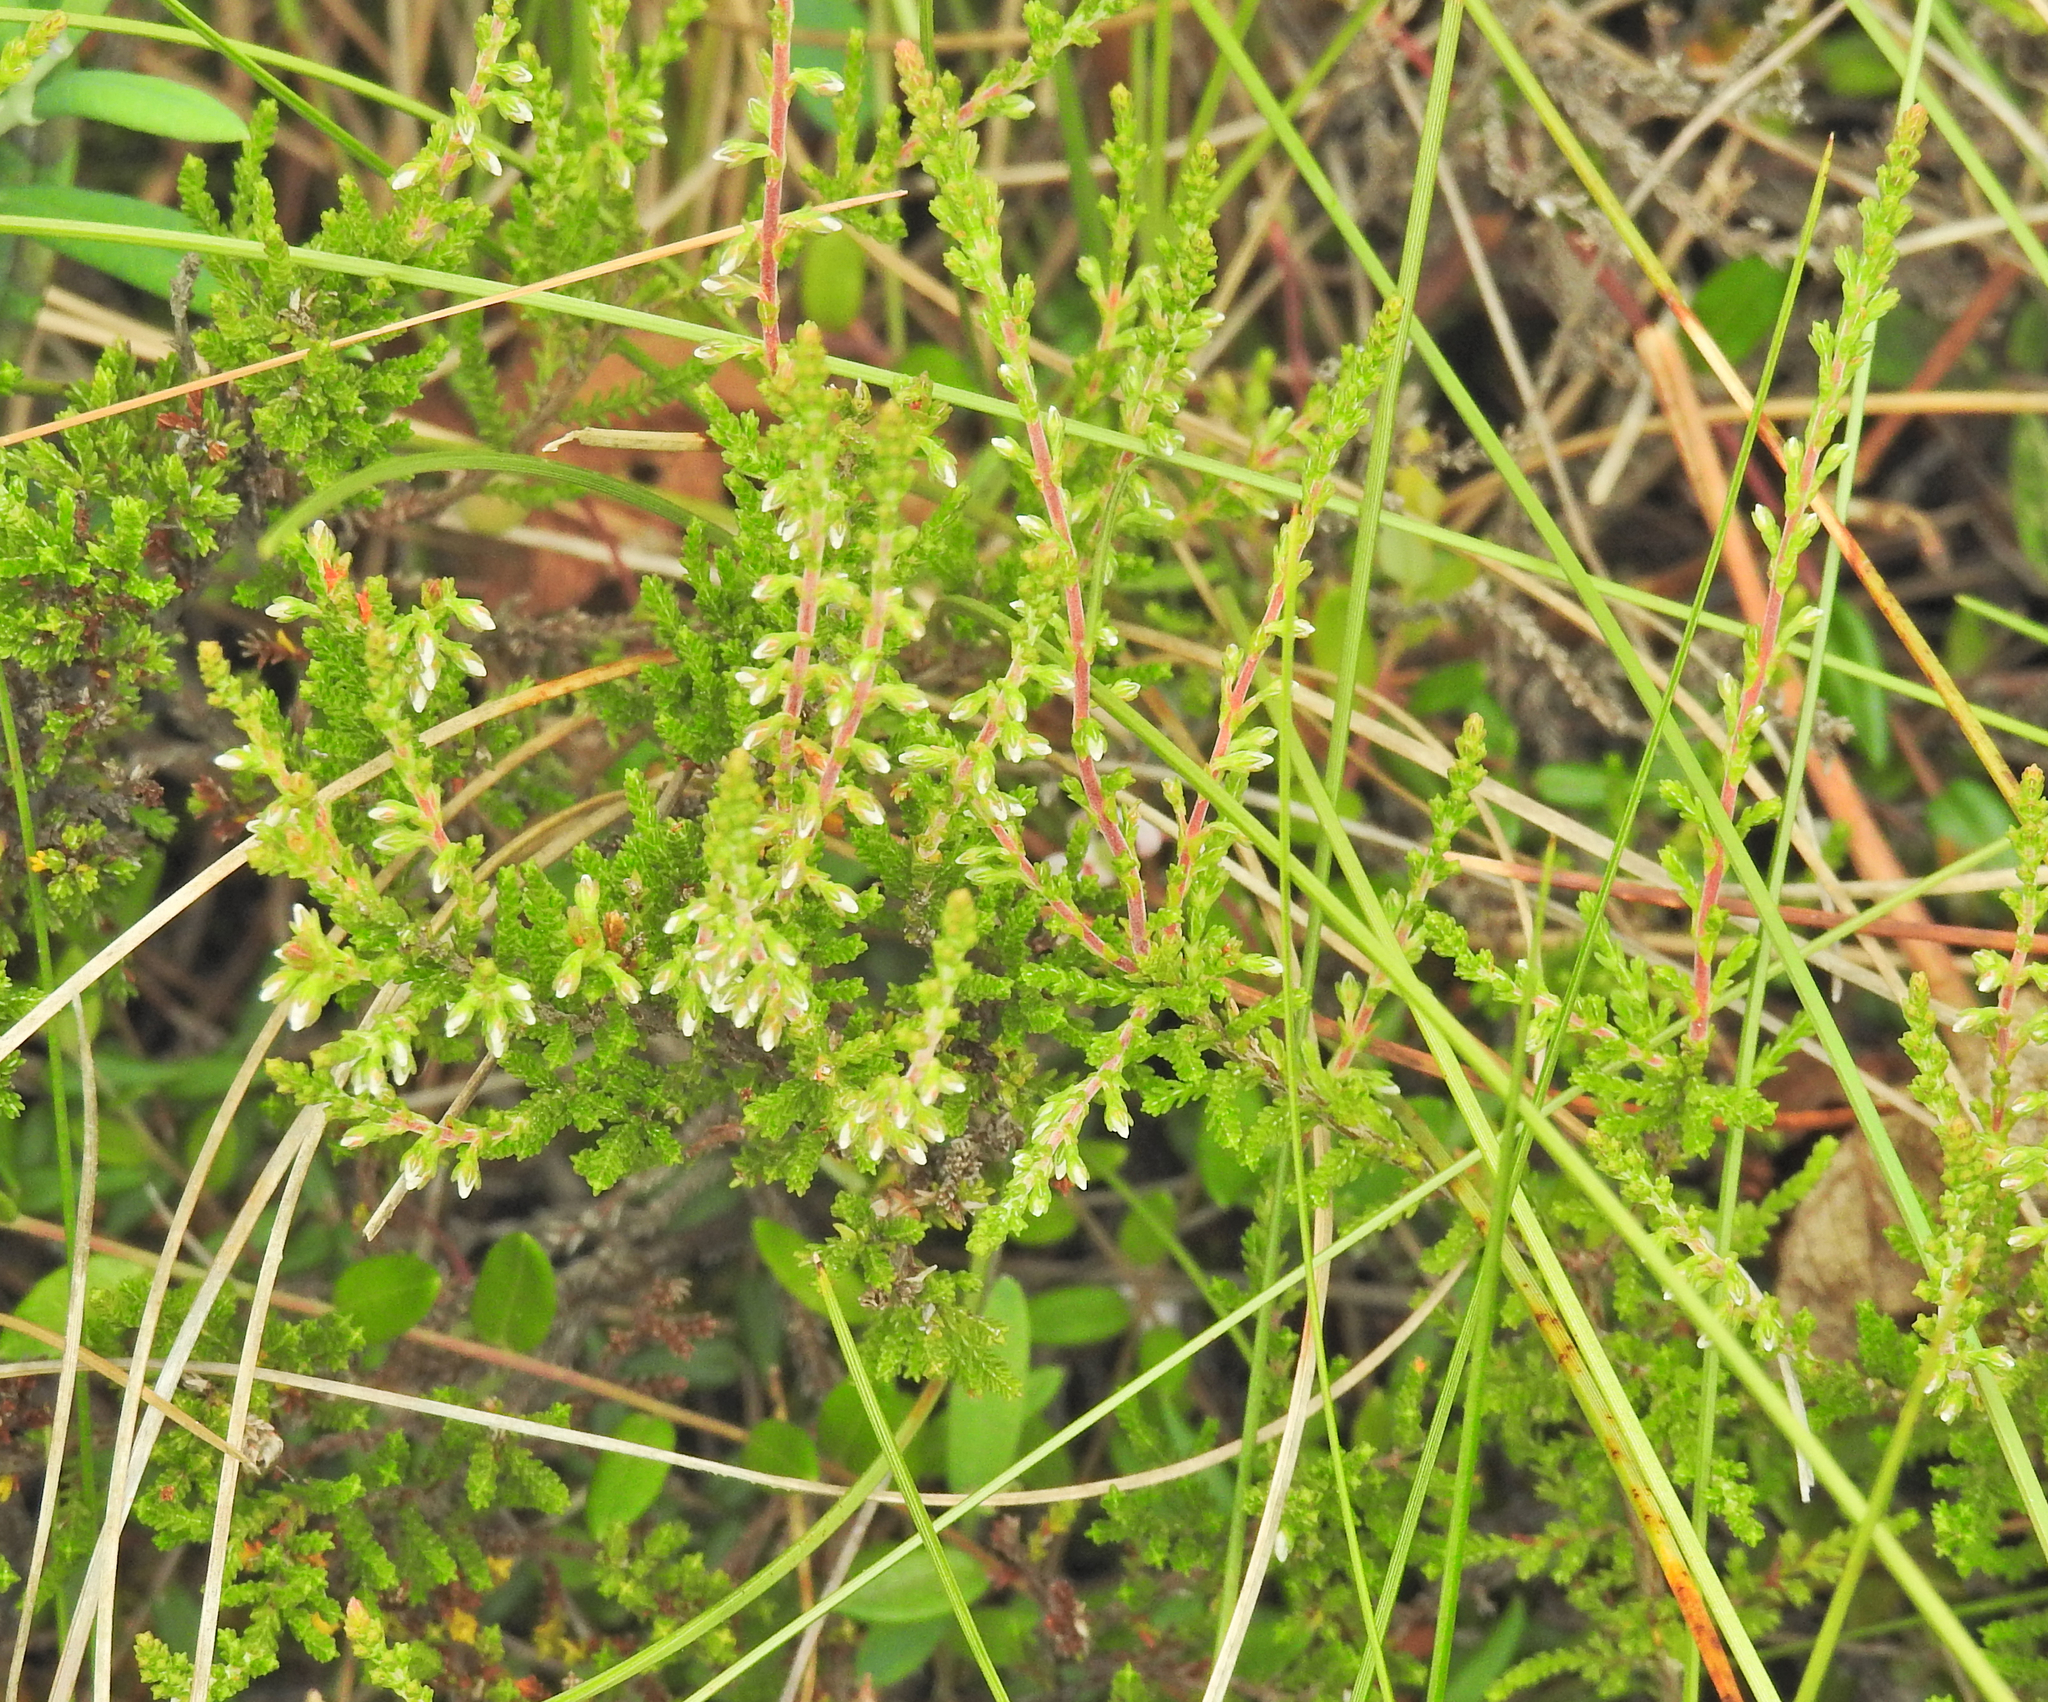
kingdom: Plantae
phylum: Tracheophyta
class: Magnoliopsida
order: Ericales
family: Ericaceae
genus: Calluna
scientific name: Calluna vulgaris
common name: Heather
